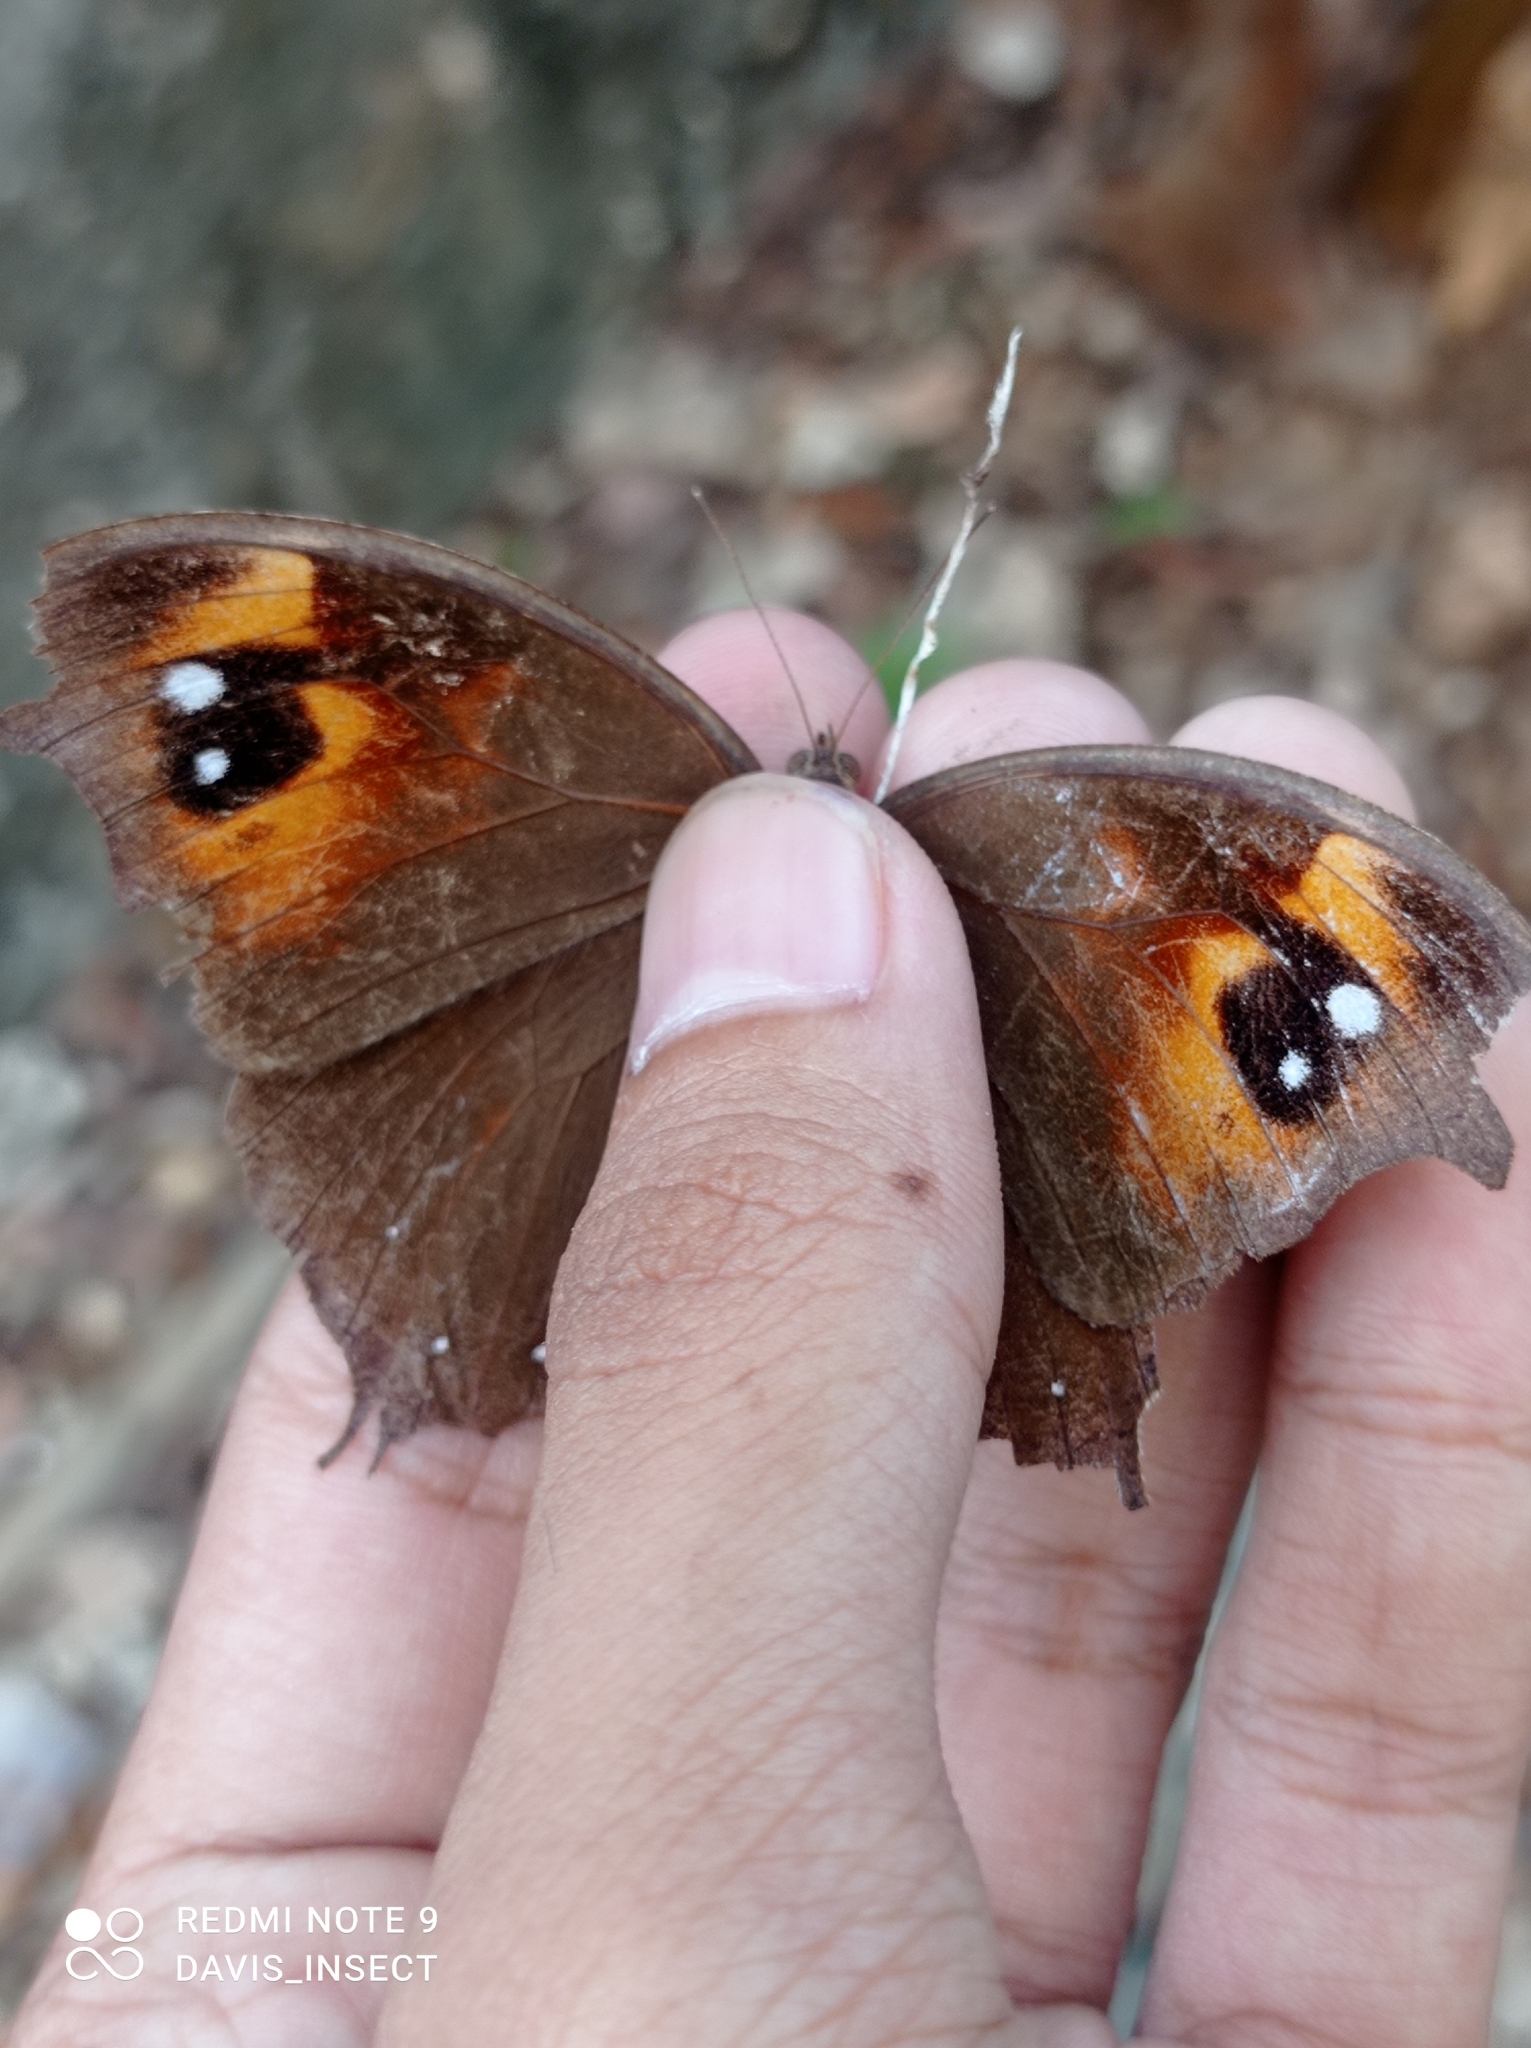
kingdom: Animalia
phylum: Arthropoda
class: Insecta
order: Lepidoptera
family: Nymphalidae
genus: Melanitis
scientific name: Melanitis leda
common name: Twilight brown
